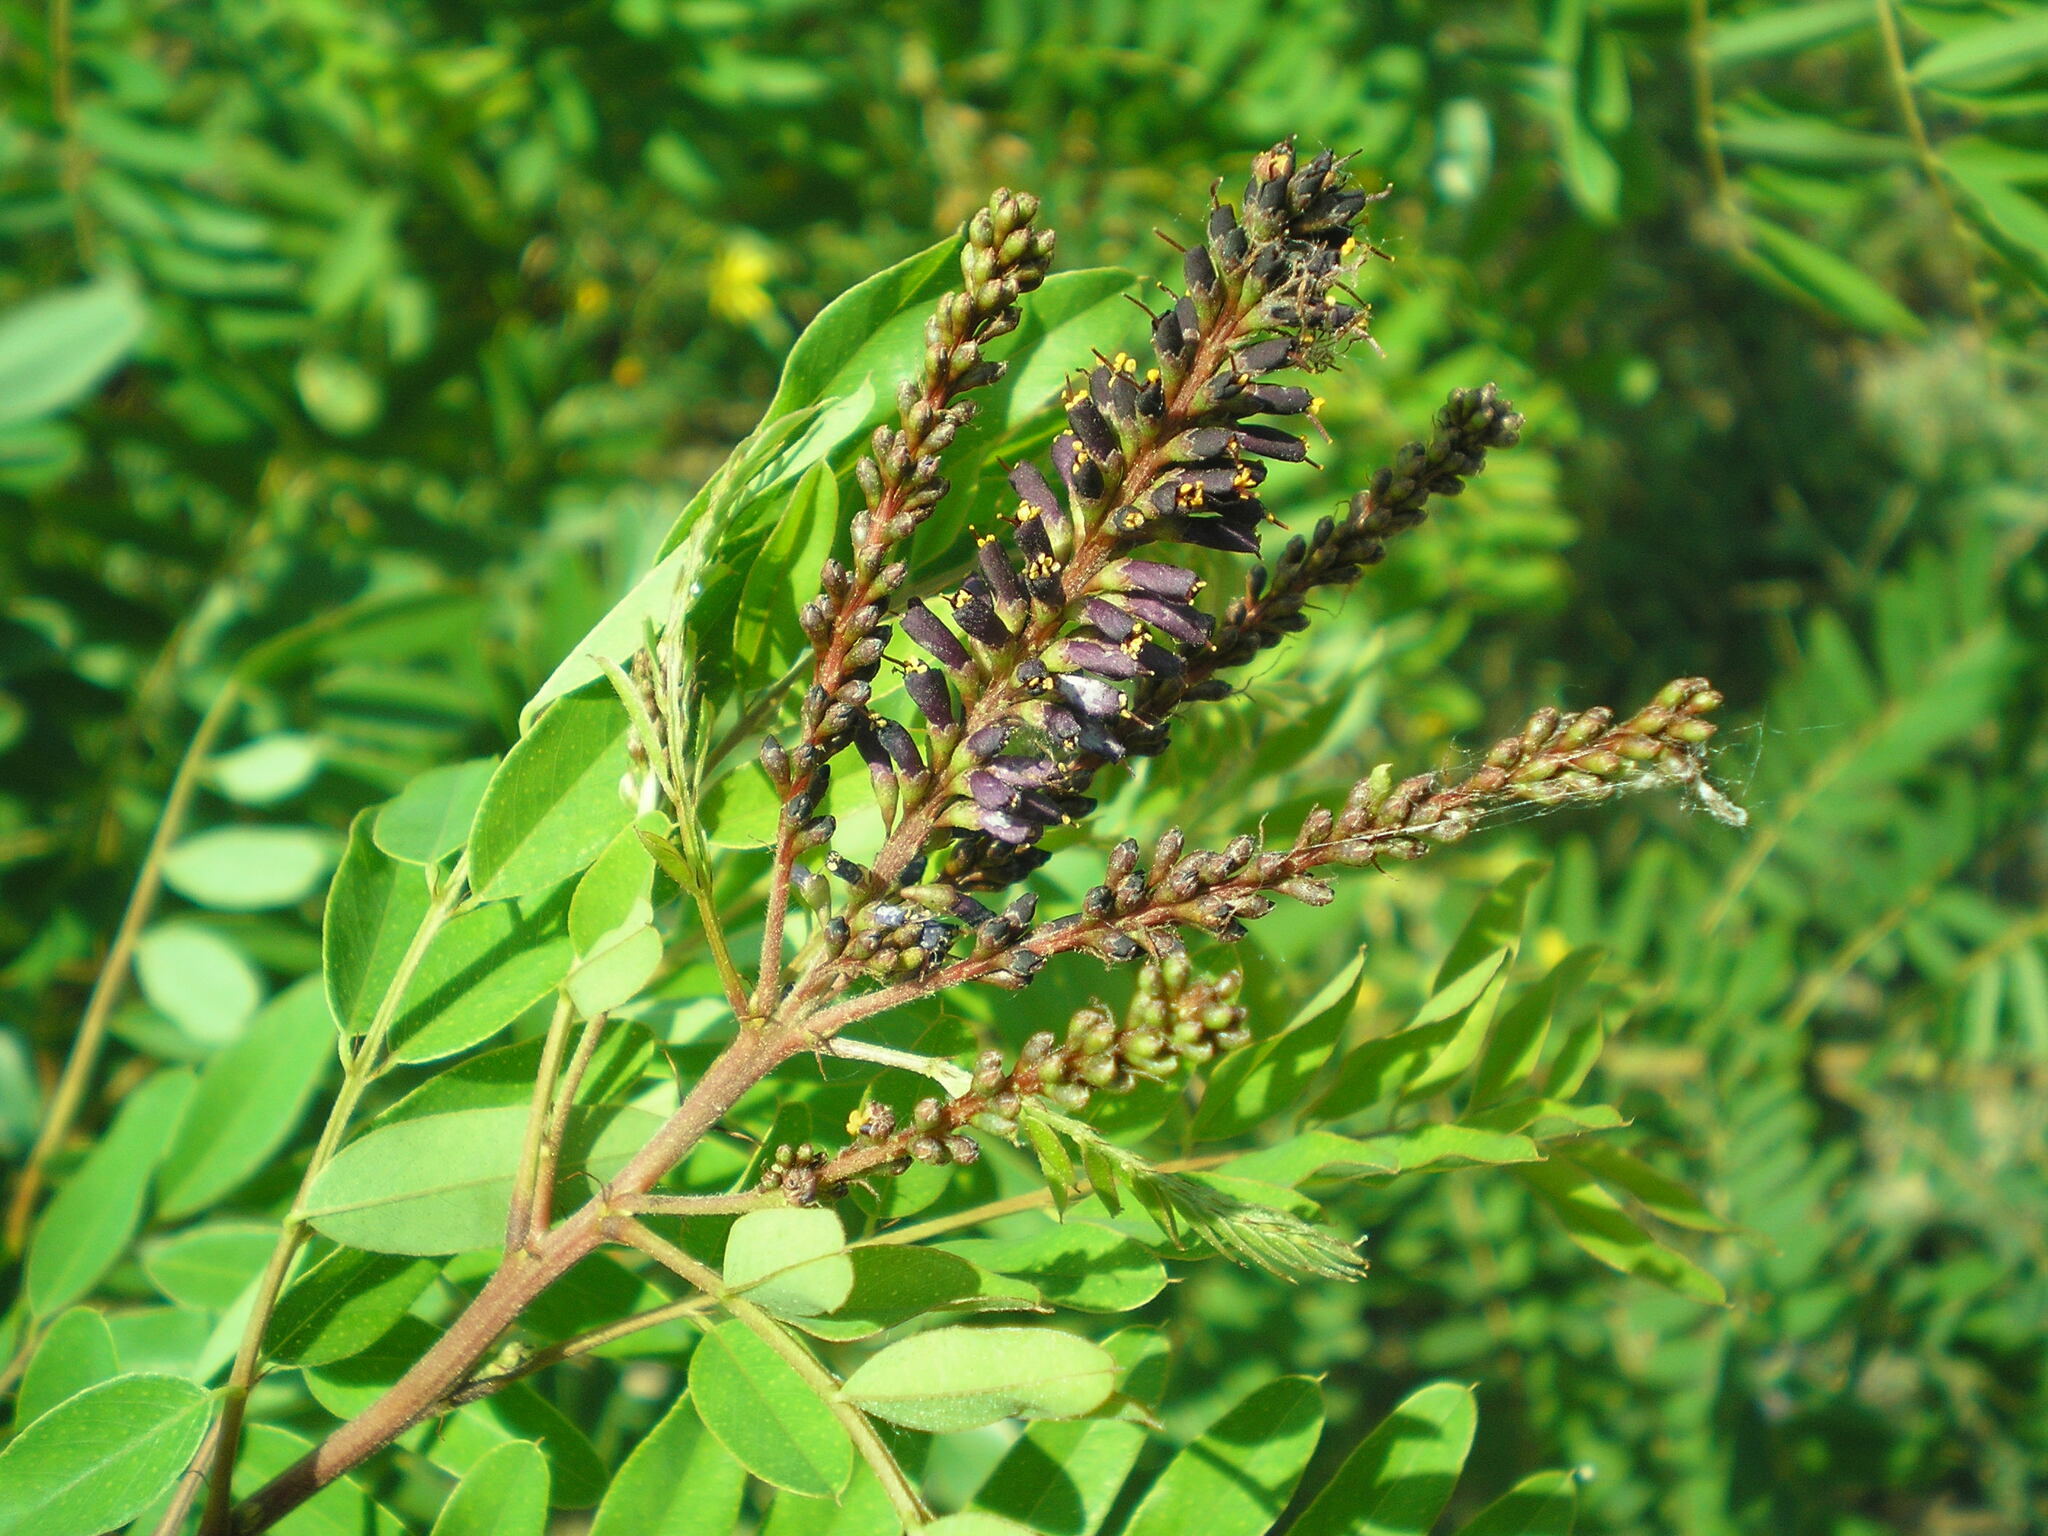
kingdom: Plantae
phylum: Tracheophyta
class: Magnoliopsida
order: Fabales
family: Fabaceae
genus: Amorpha
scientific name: Amorpha fruticosa
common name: False indigo
